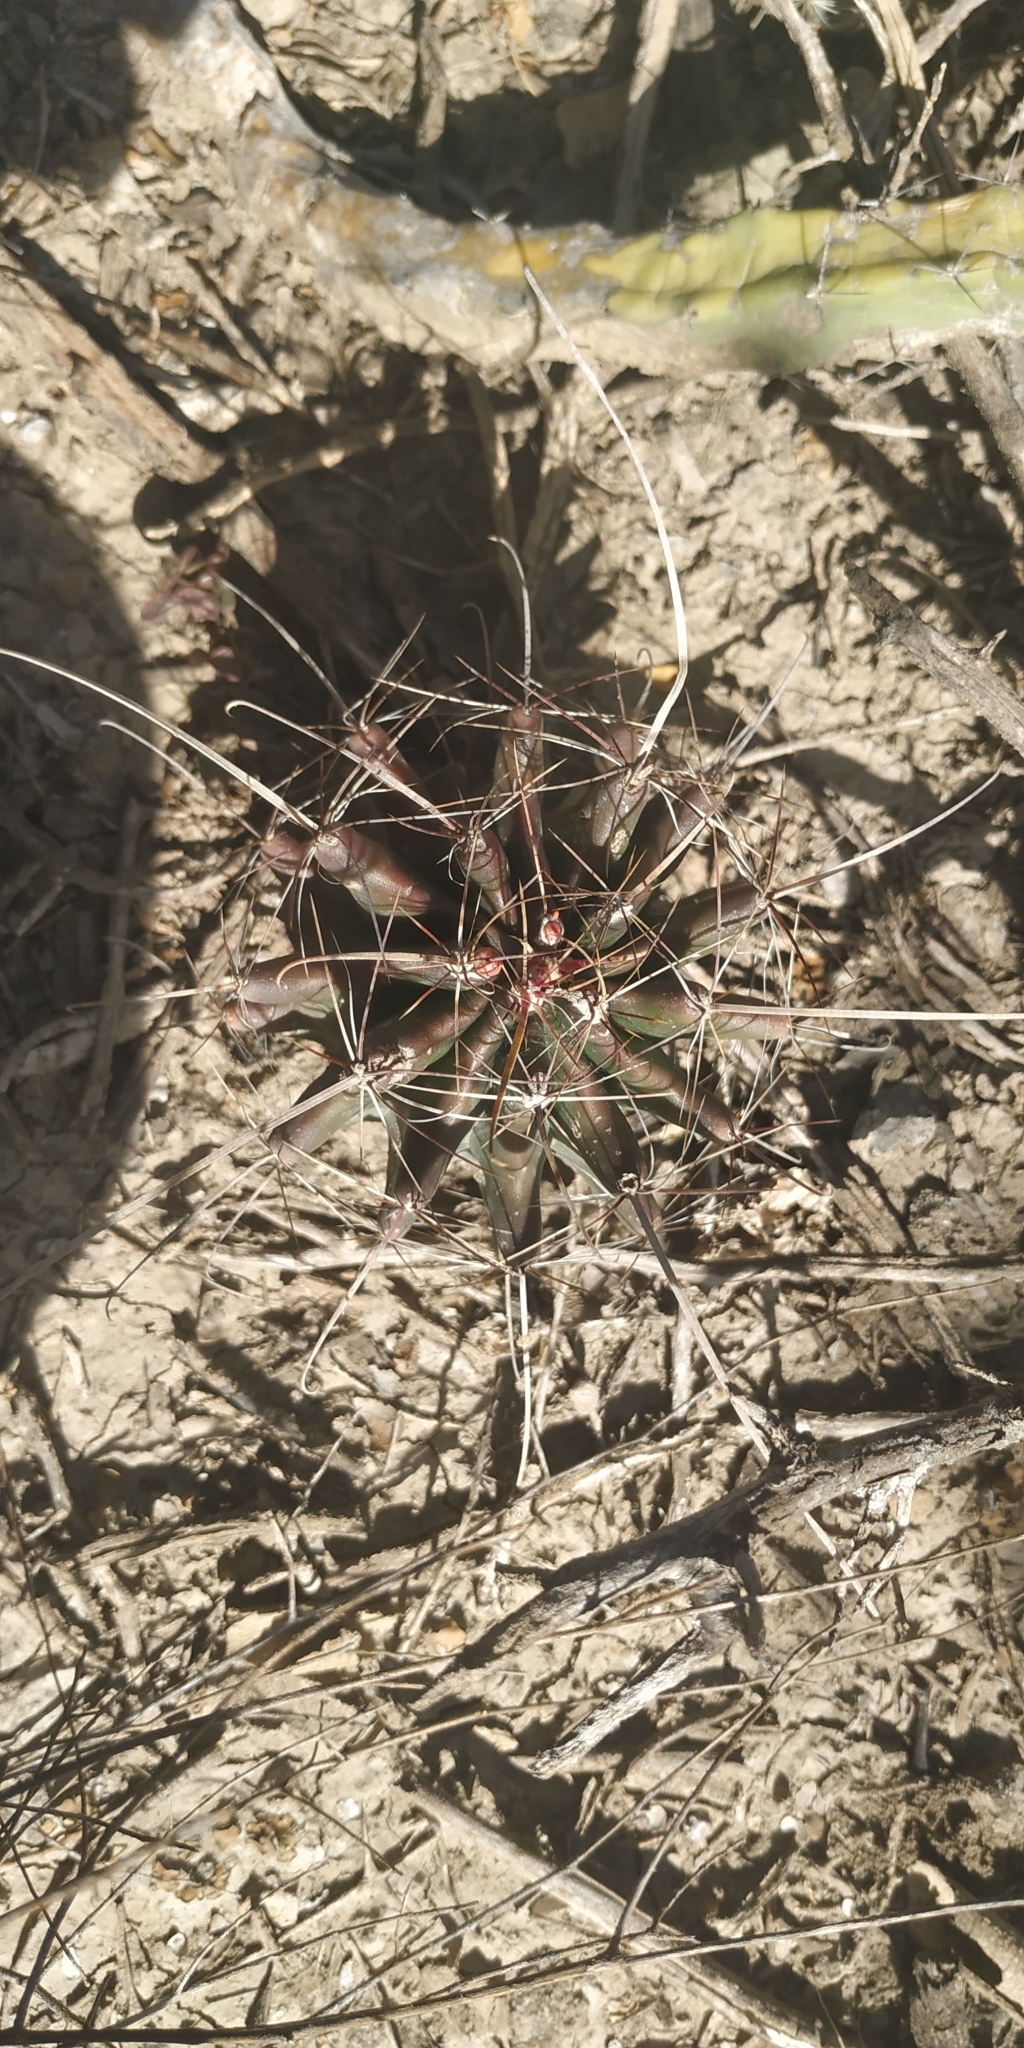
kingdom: Plantae
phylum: Tracheophyta
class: Magnoliopsida
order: Caryophyllales
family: Cactaceae
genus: Thelocactus
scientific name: Thelocactus setispinus
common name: Miniature barrel cactus
